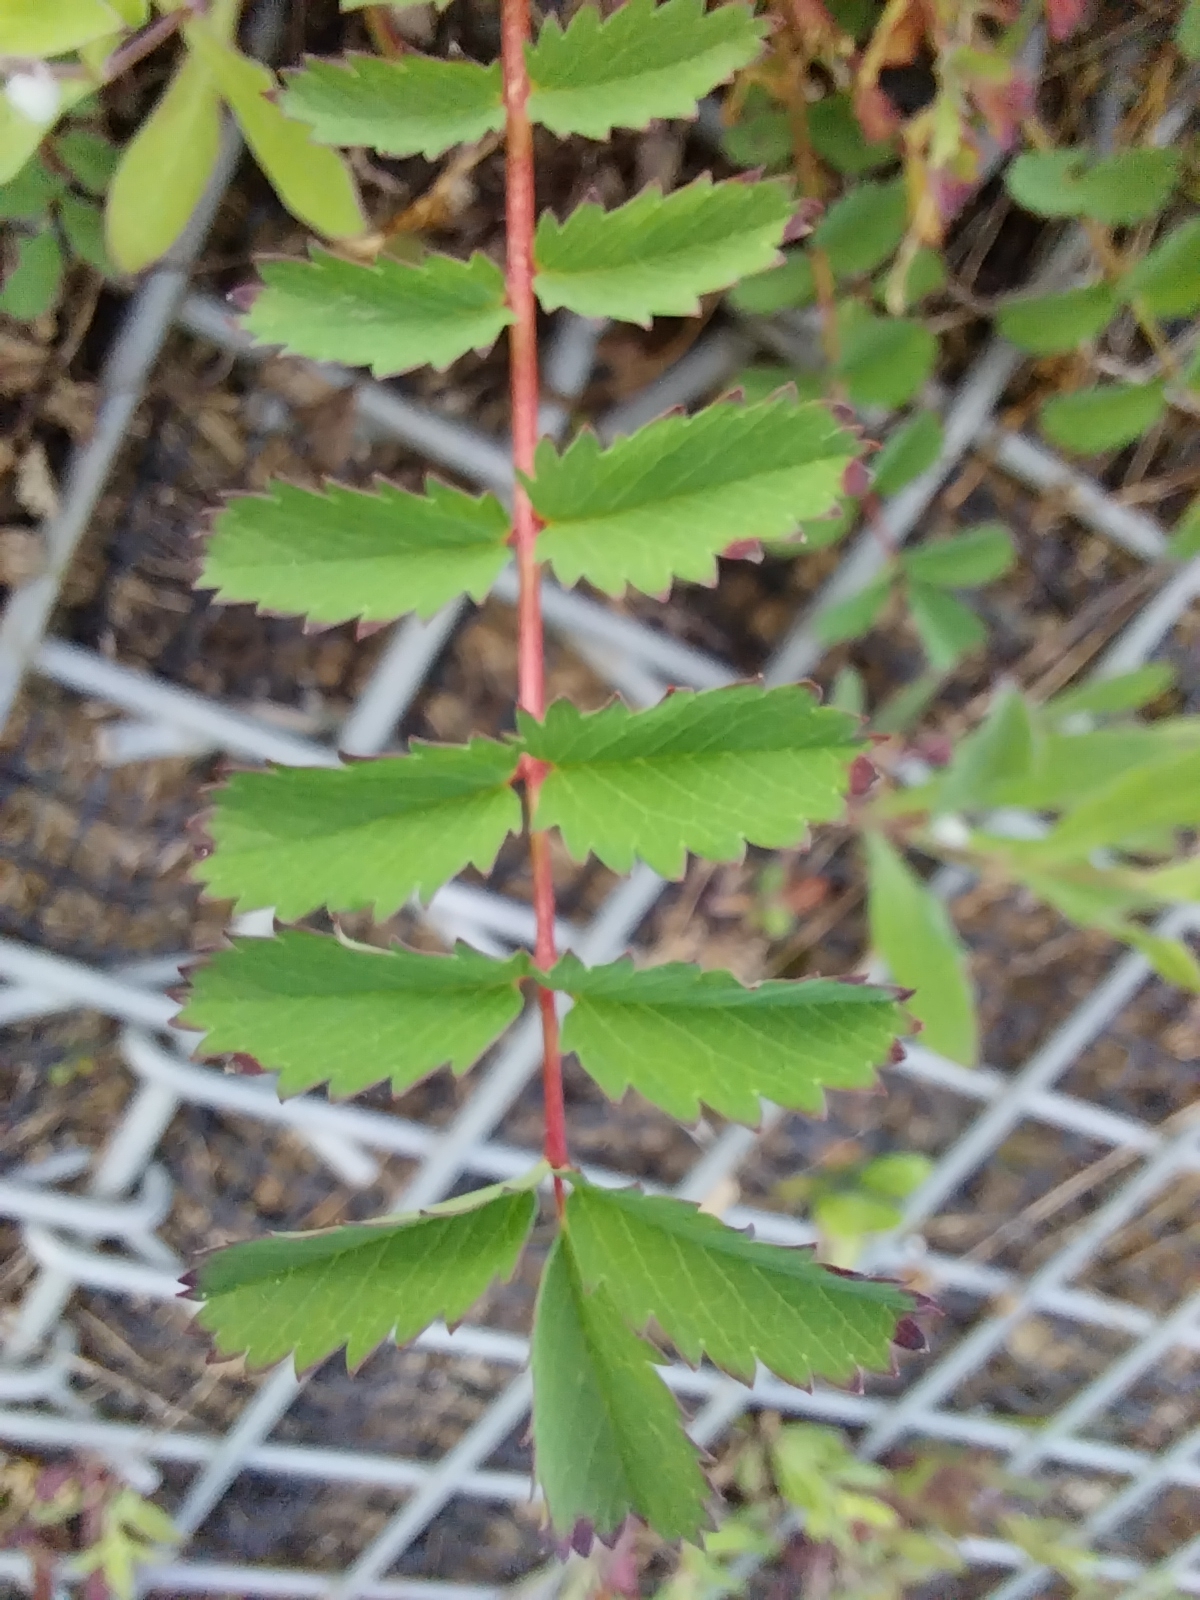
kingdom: Plantae
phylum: Tracheophyta
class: Magnoliopsida
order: Rosales
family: Rosaceae
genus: Poterium
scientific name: Poterium sanguisorba
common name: Salad burnet
